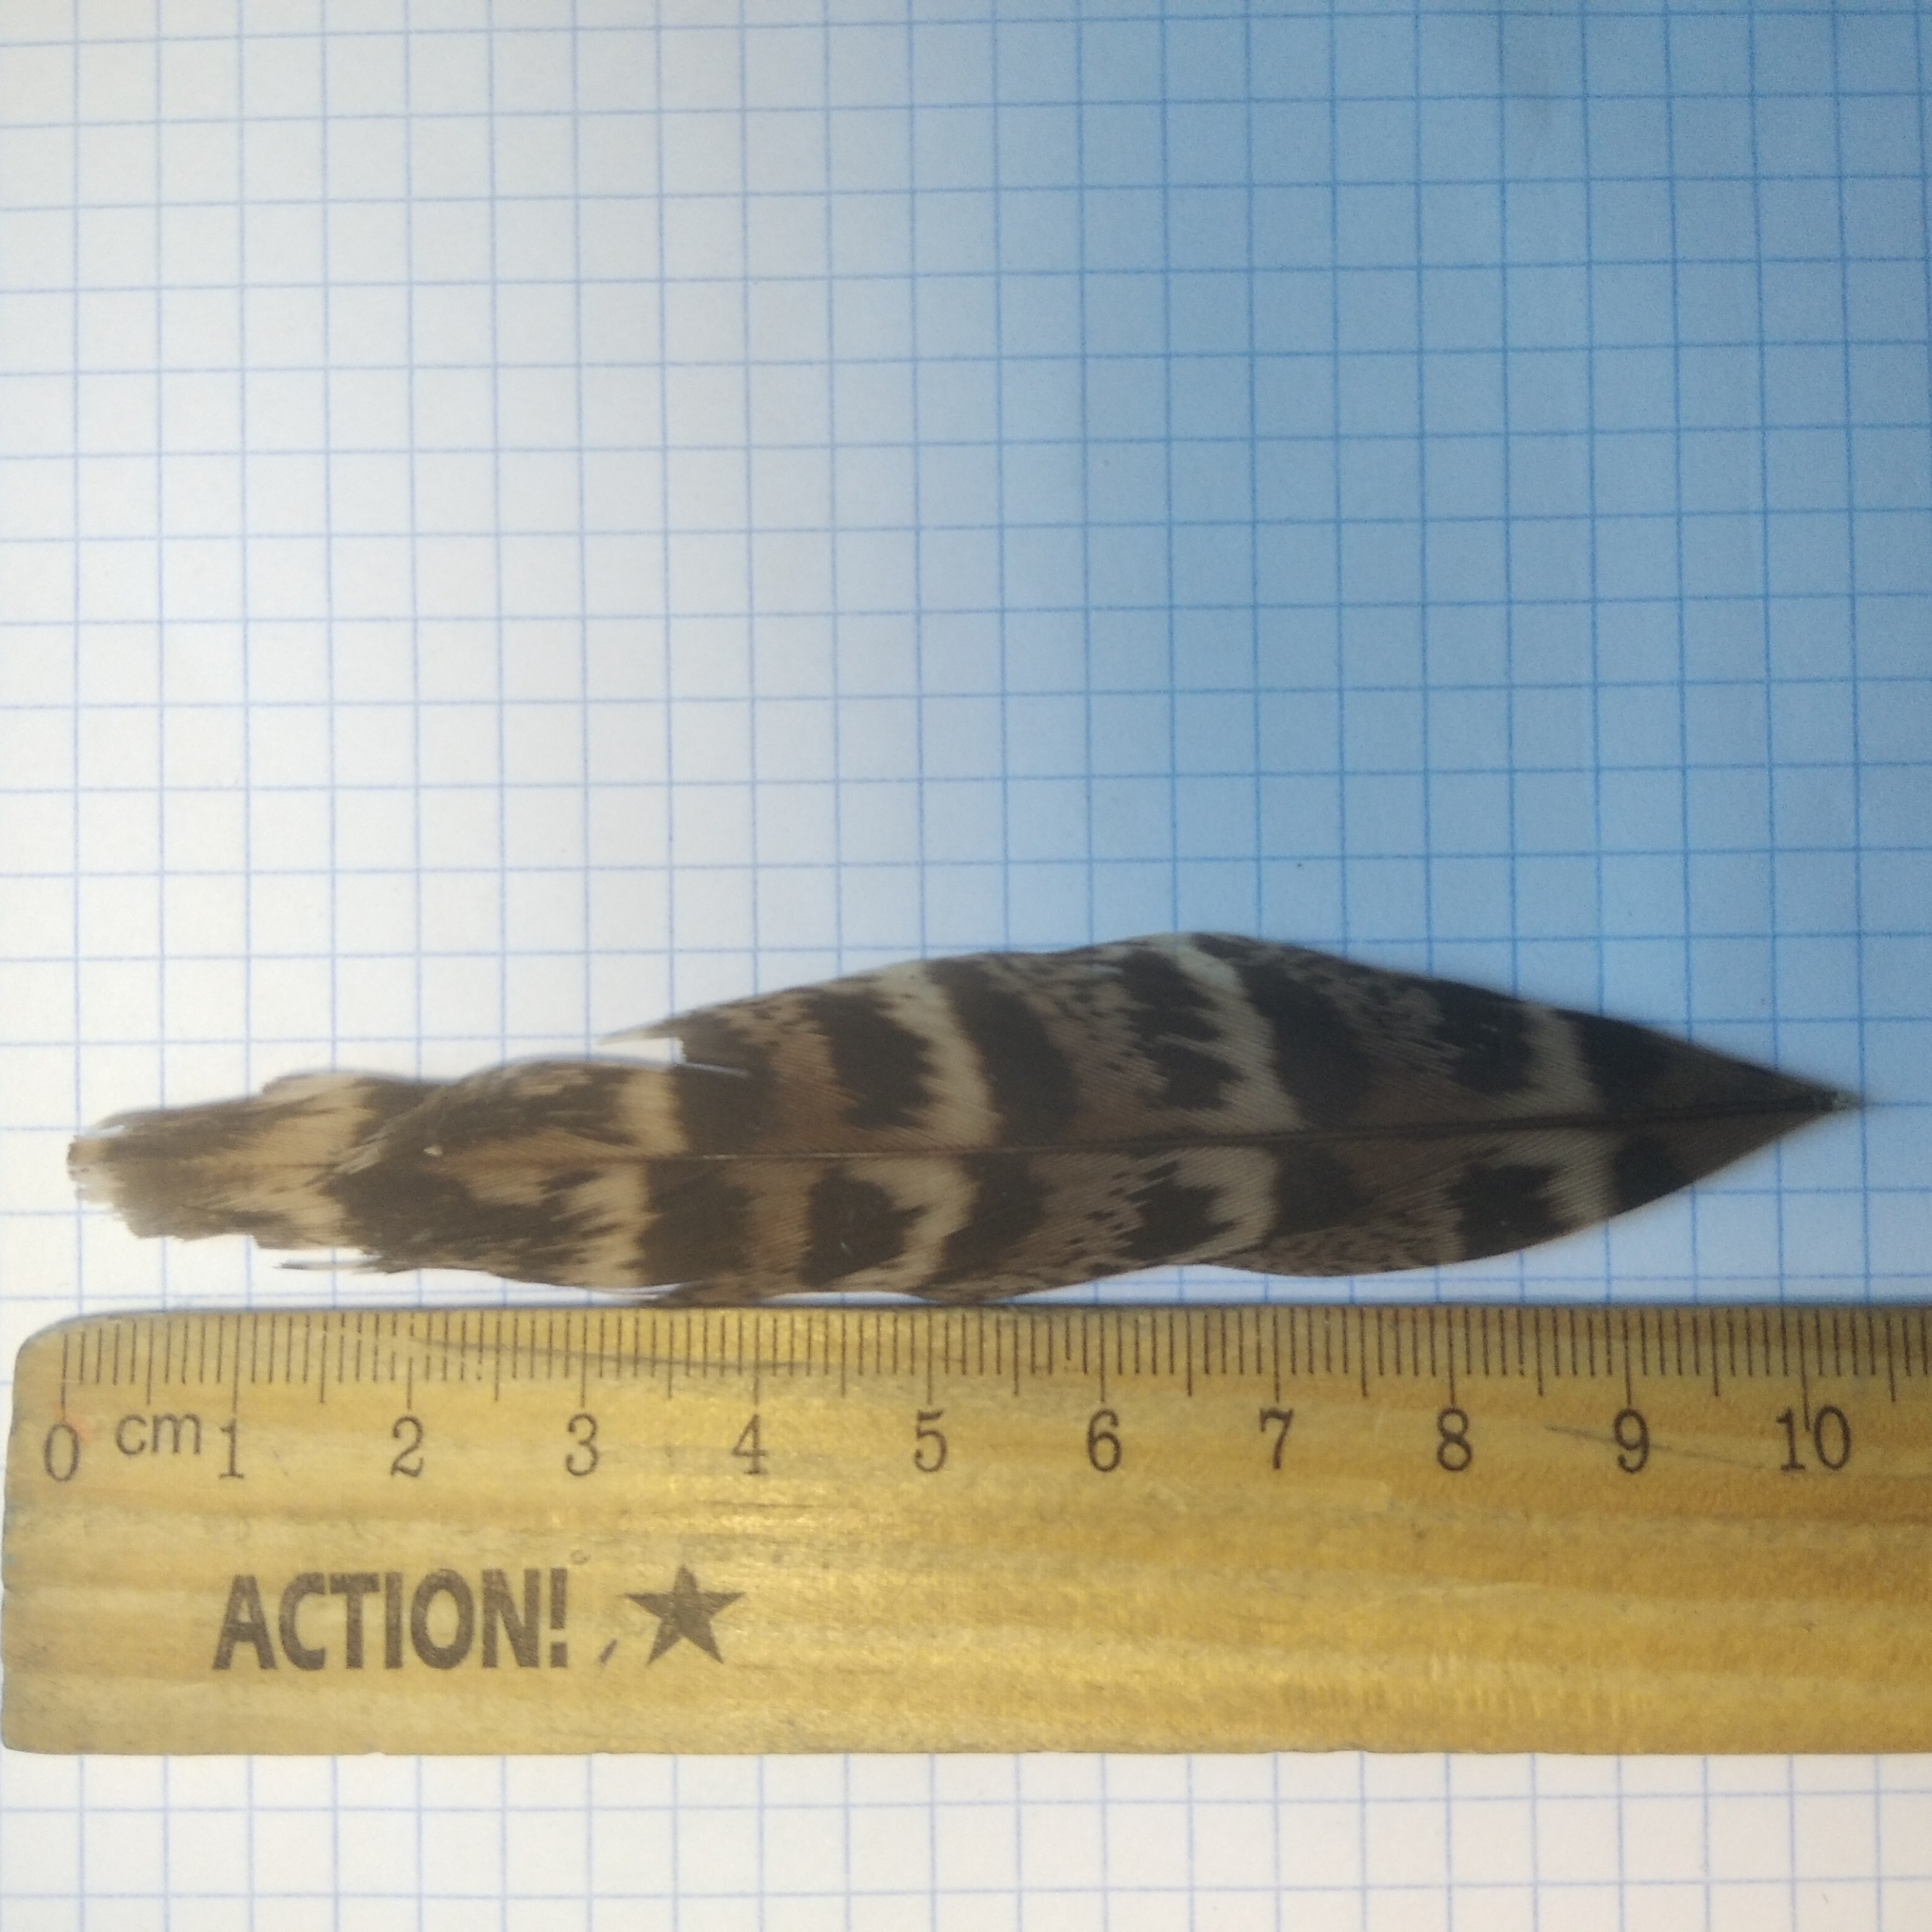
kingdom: Animalia
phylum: Chordata
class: Aves
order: Galliformes
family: Phasianidae
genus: Phasianus
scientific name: Phasianus colchicus
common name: Common pheasant
